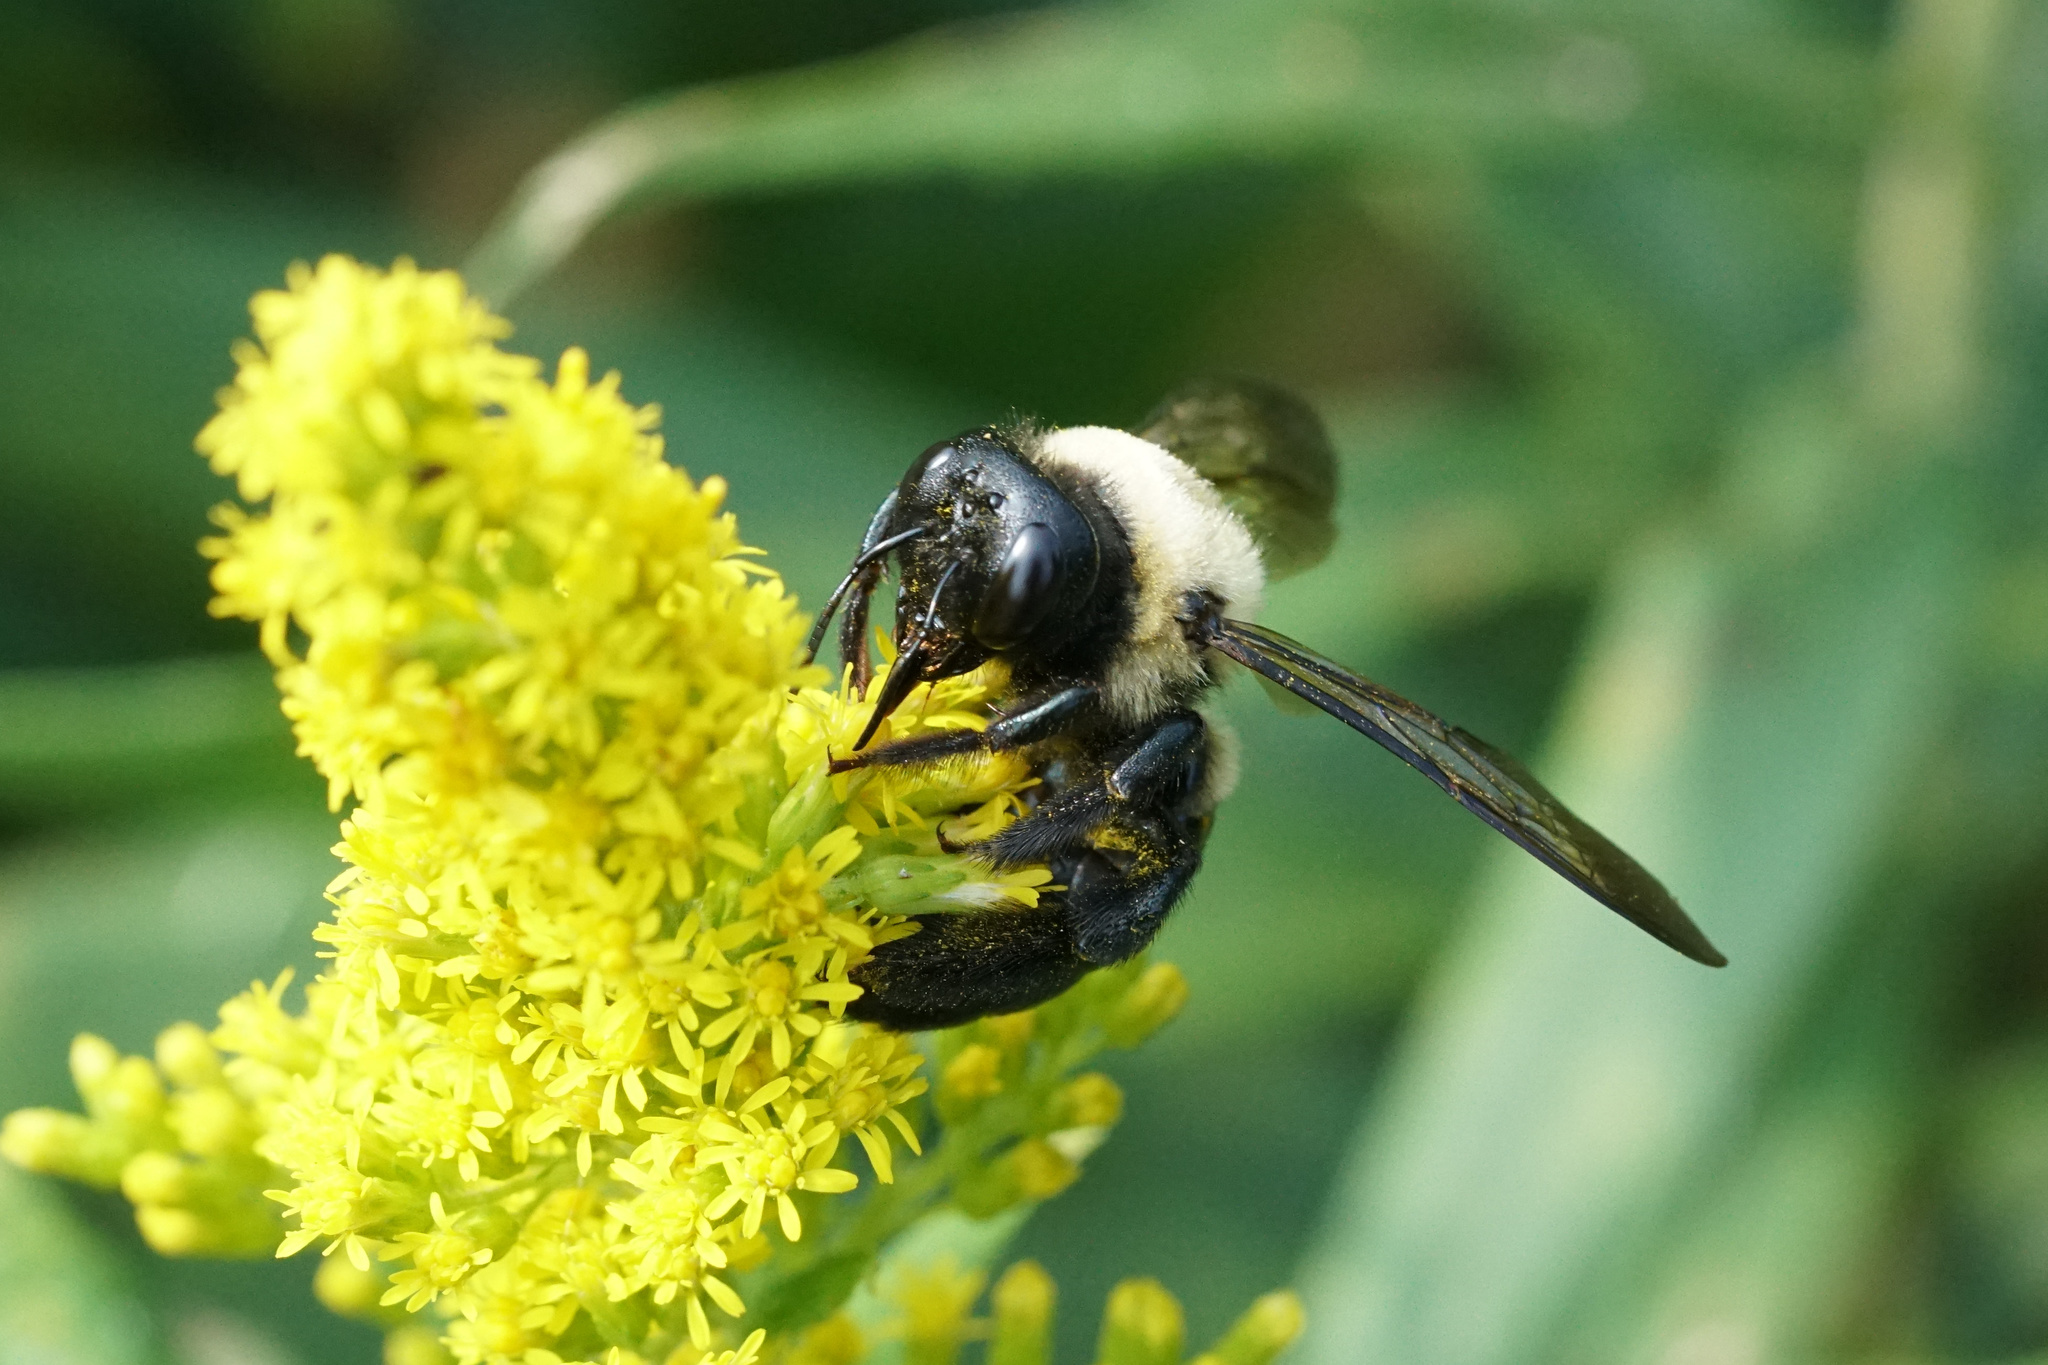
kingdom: Animalia
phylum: Arthropoda
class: Insecta
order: Hymenoptera
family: Apidae
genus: Xylocopa
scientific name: Xylocopa virginica
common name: Carpenter bee
